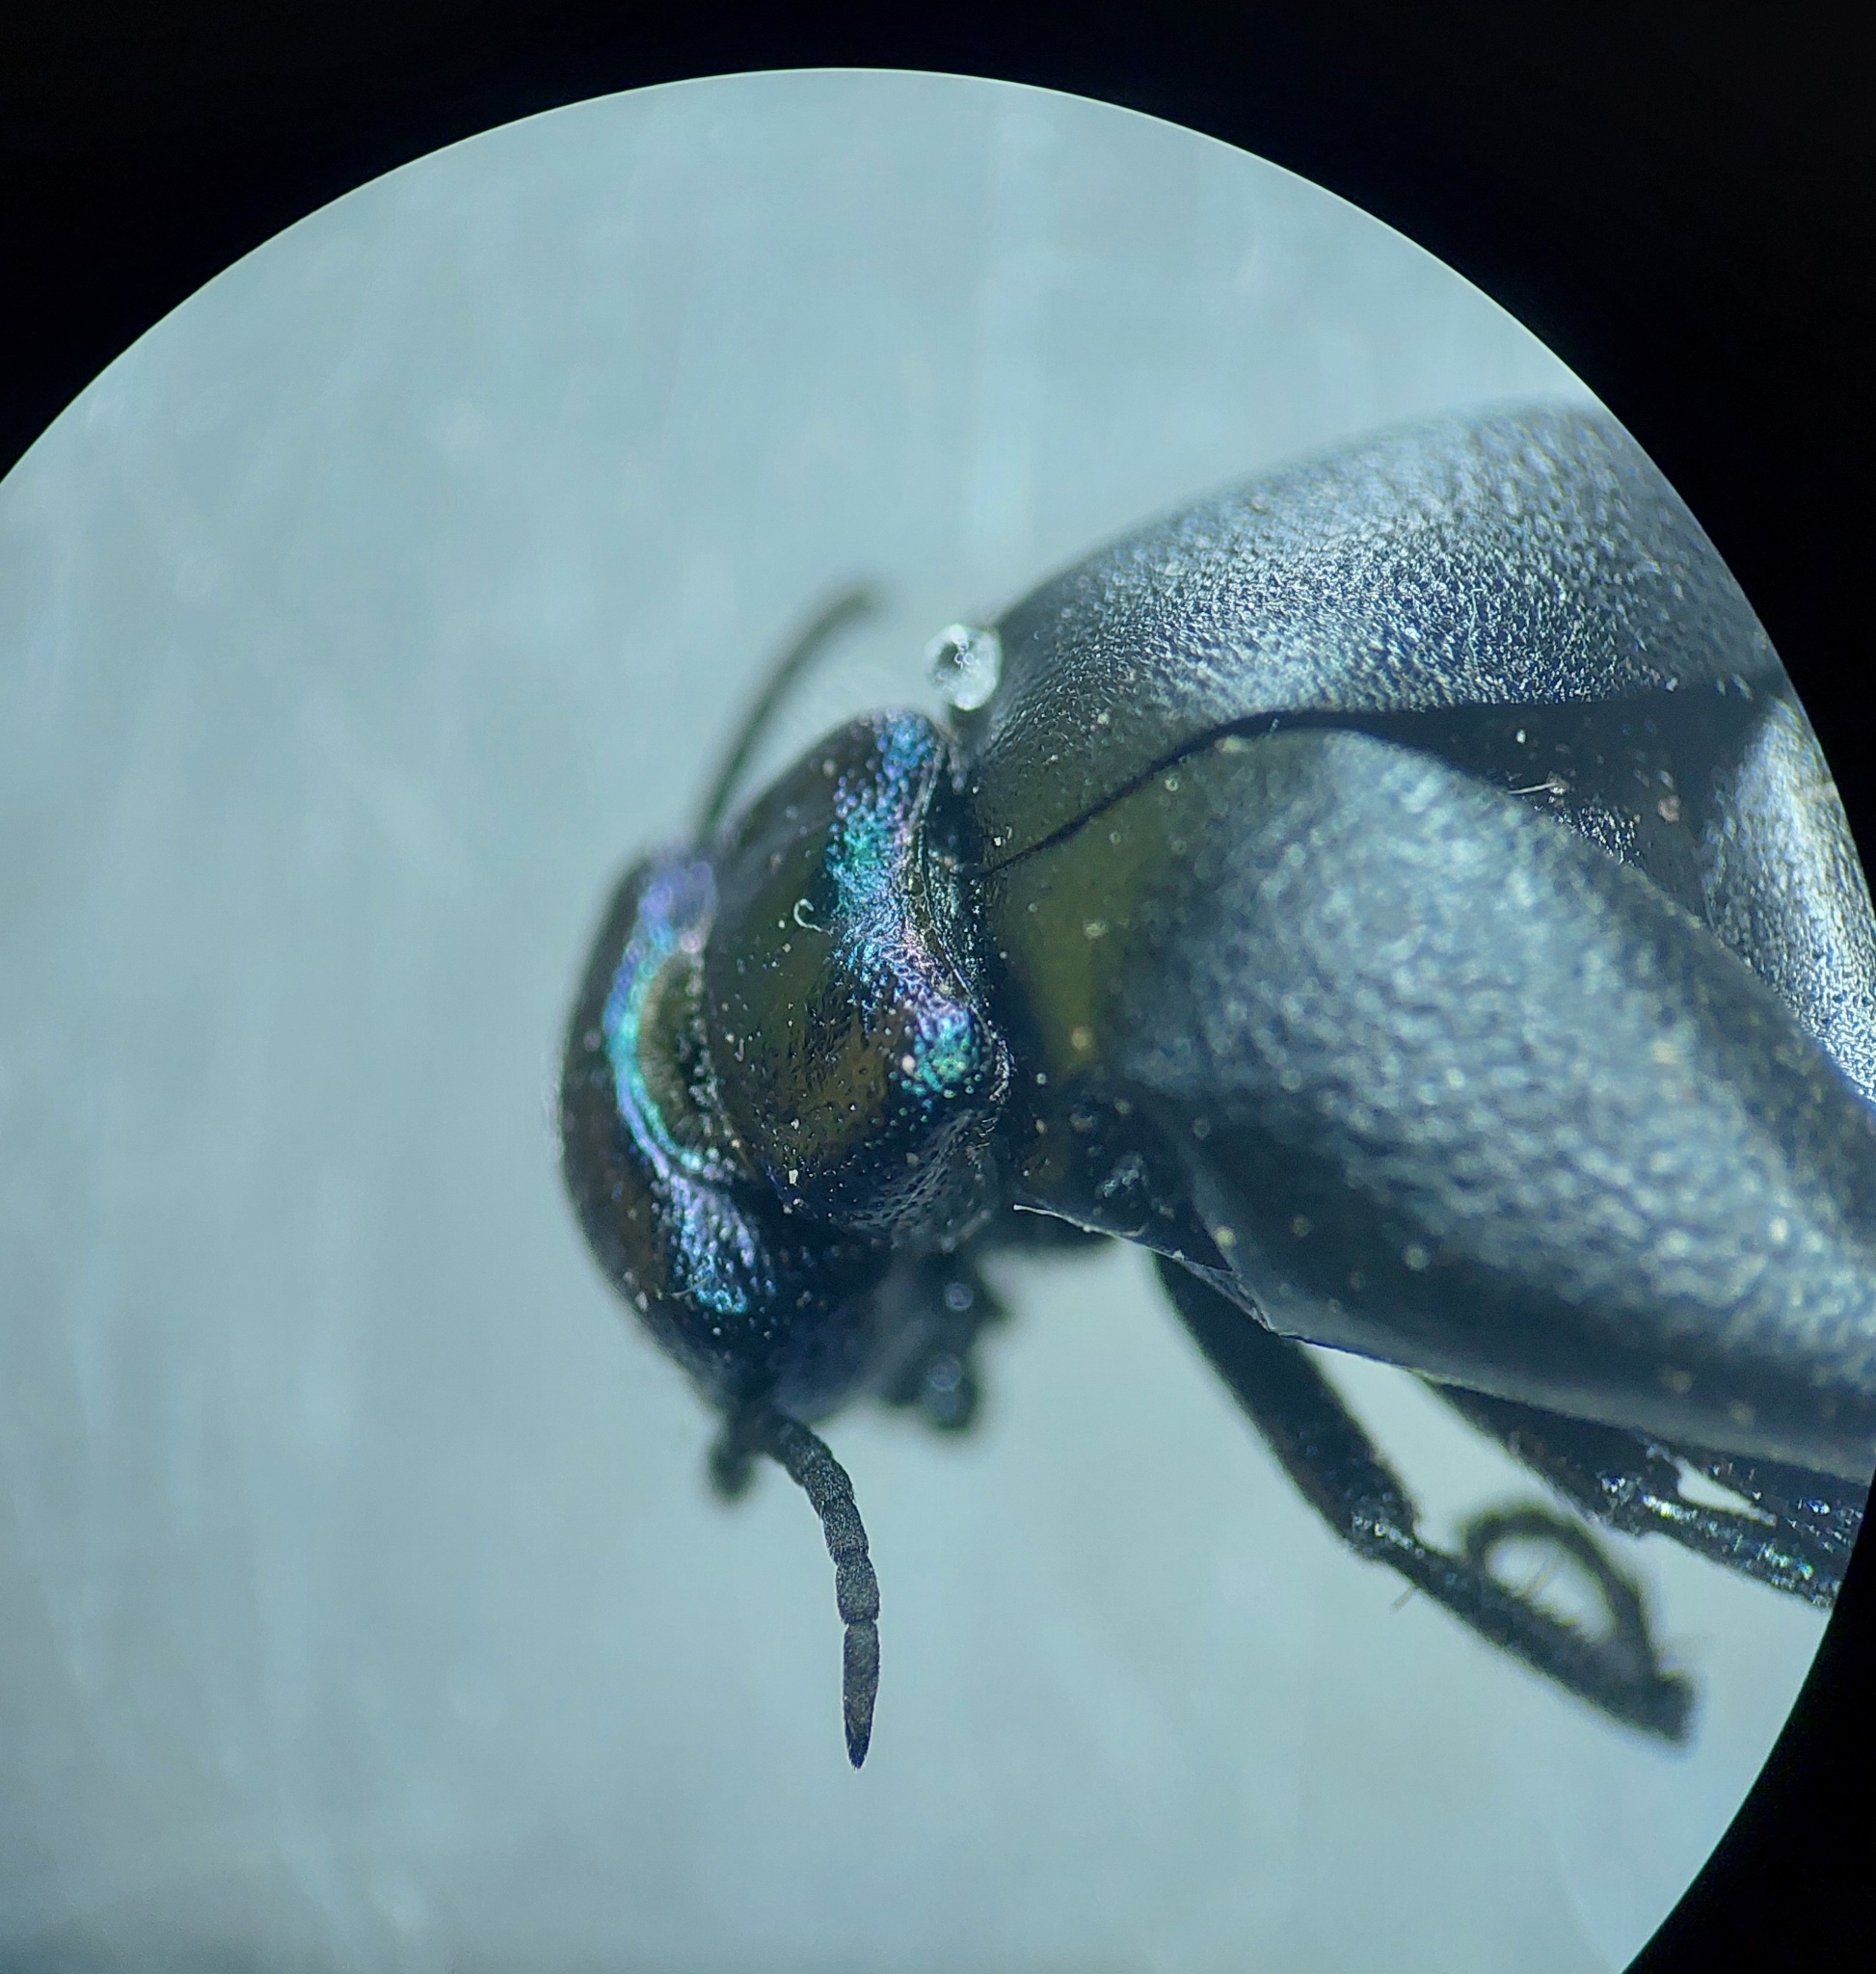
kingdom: Animalia
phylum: Arthropoda
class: Insecta
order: Coleoptera
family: Meloidae
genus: Meloe
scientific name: Meloe decorus
